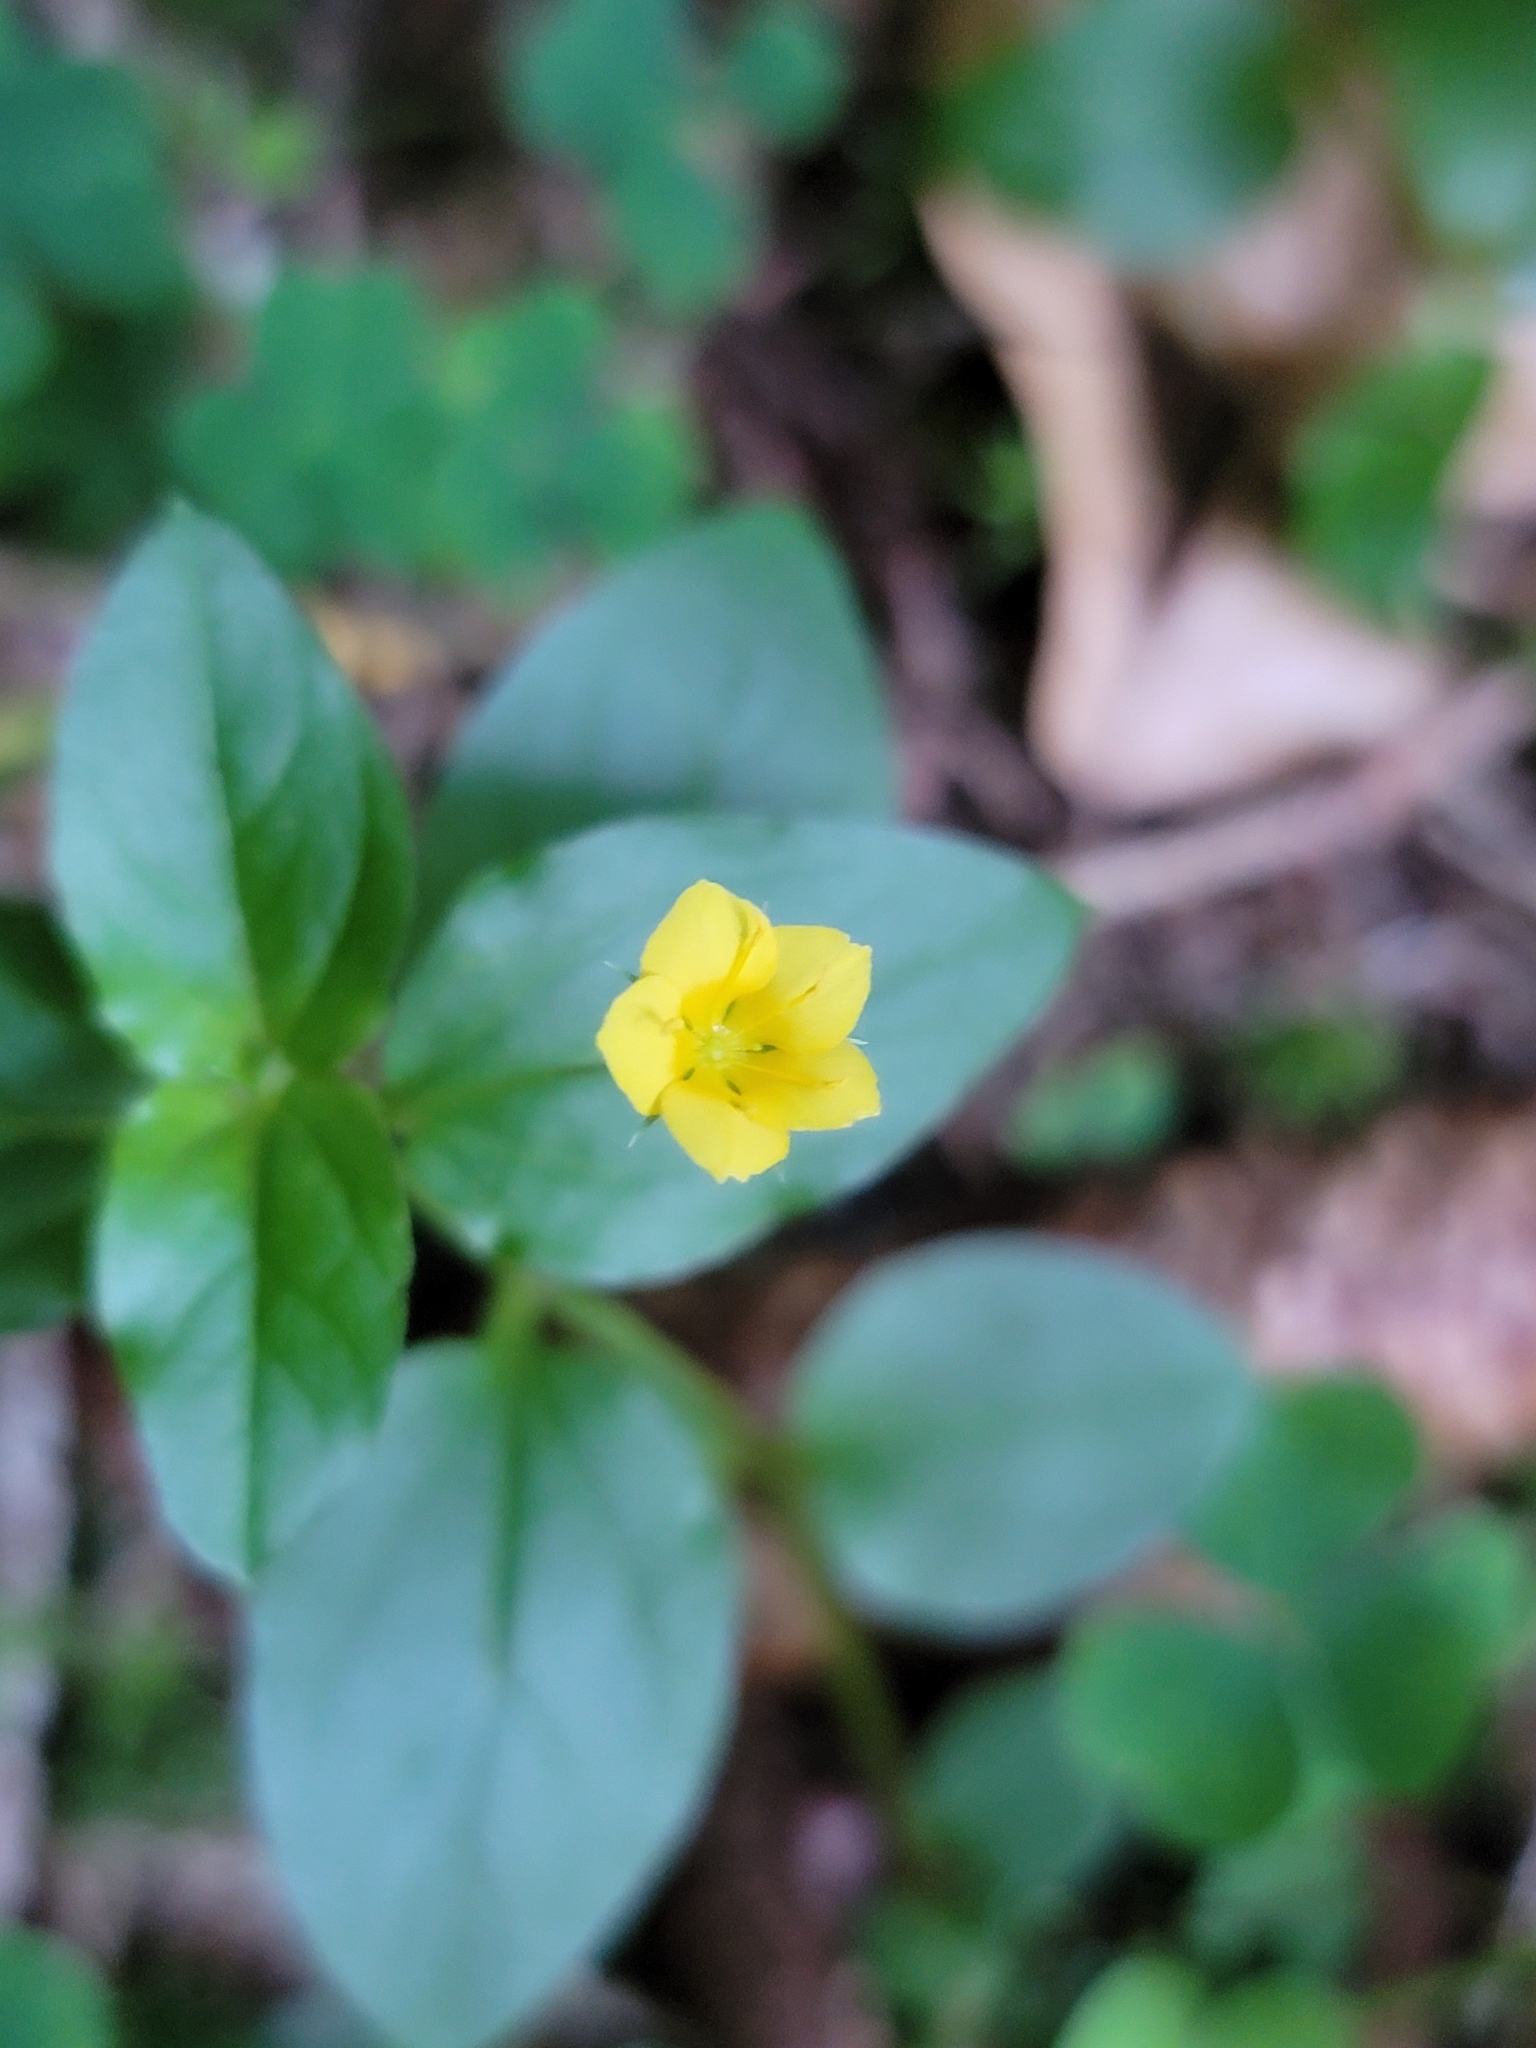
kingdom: Plantae
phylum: Tracheophyta
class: Magnoliopsida
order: Ericales
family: Primulaceae
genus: Lysimachia
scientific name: Lysimachia nemorum
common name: Yellow pimpernel
